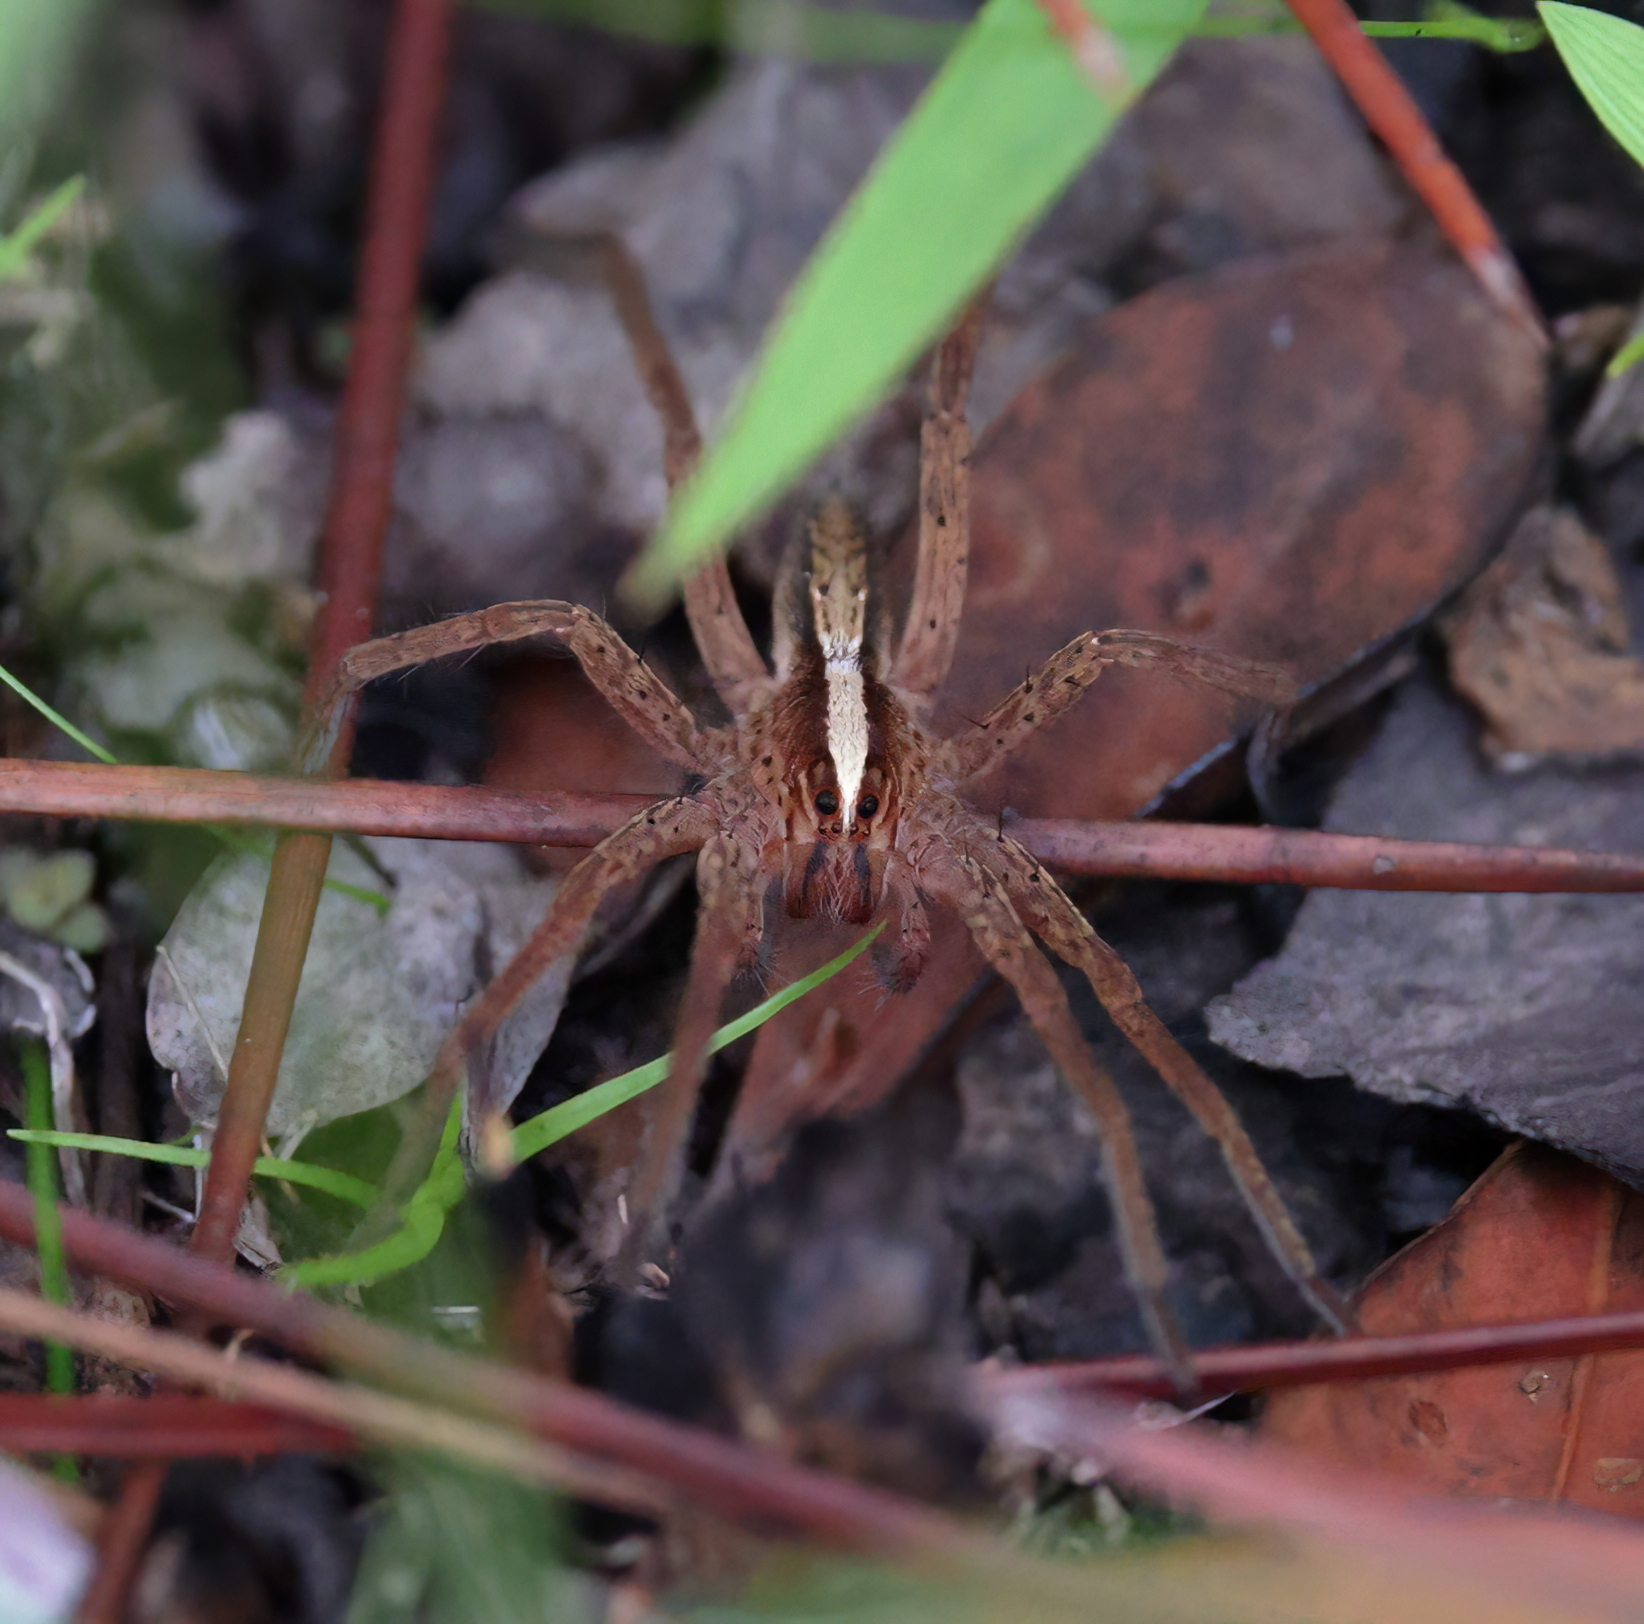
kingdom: Animalia
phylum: Arthropoda
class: Arachnida
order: Araneae
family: Lycosidae
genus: Rabidosa
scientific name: Rabidosa hentzi
